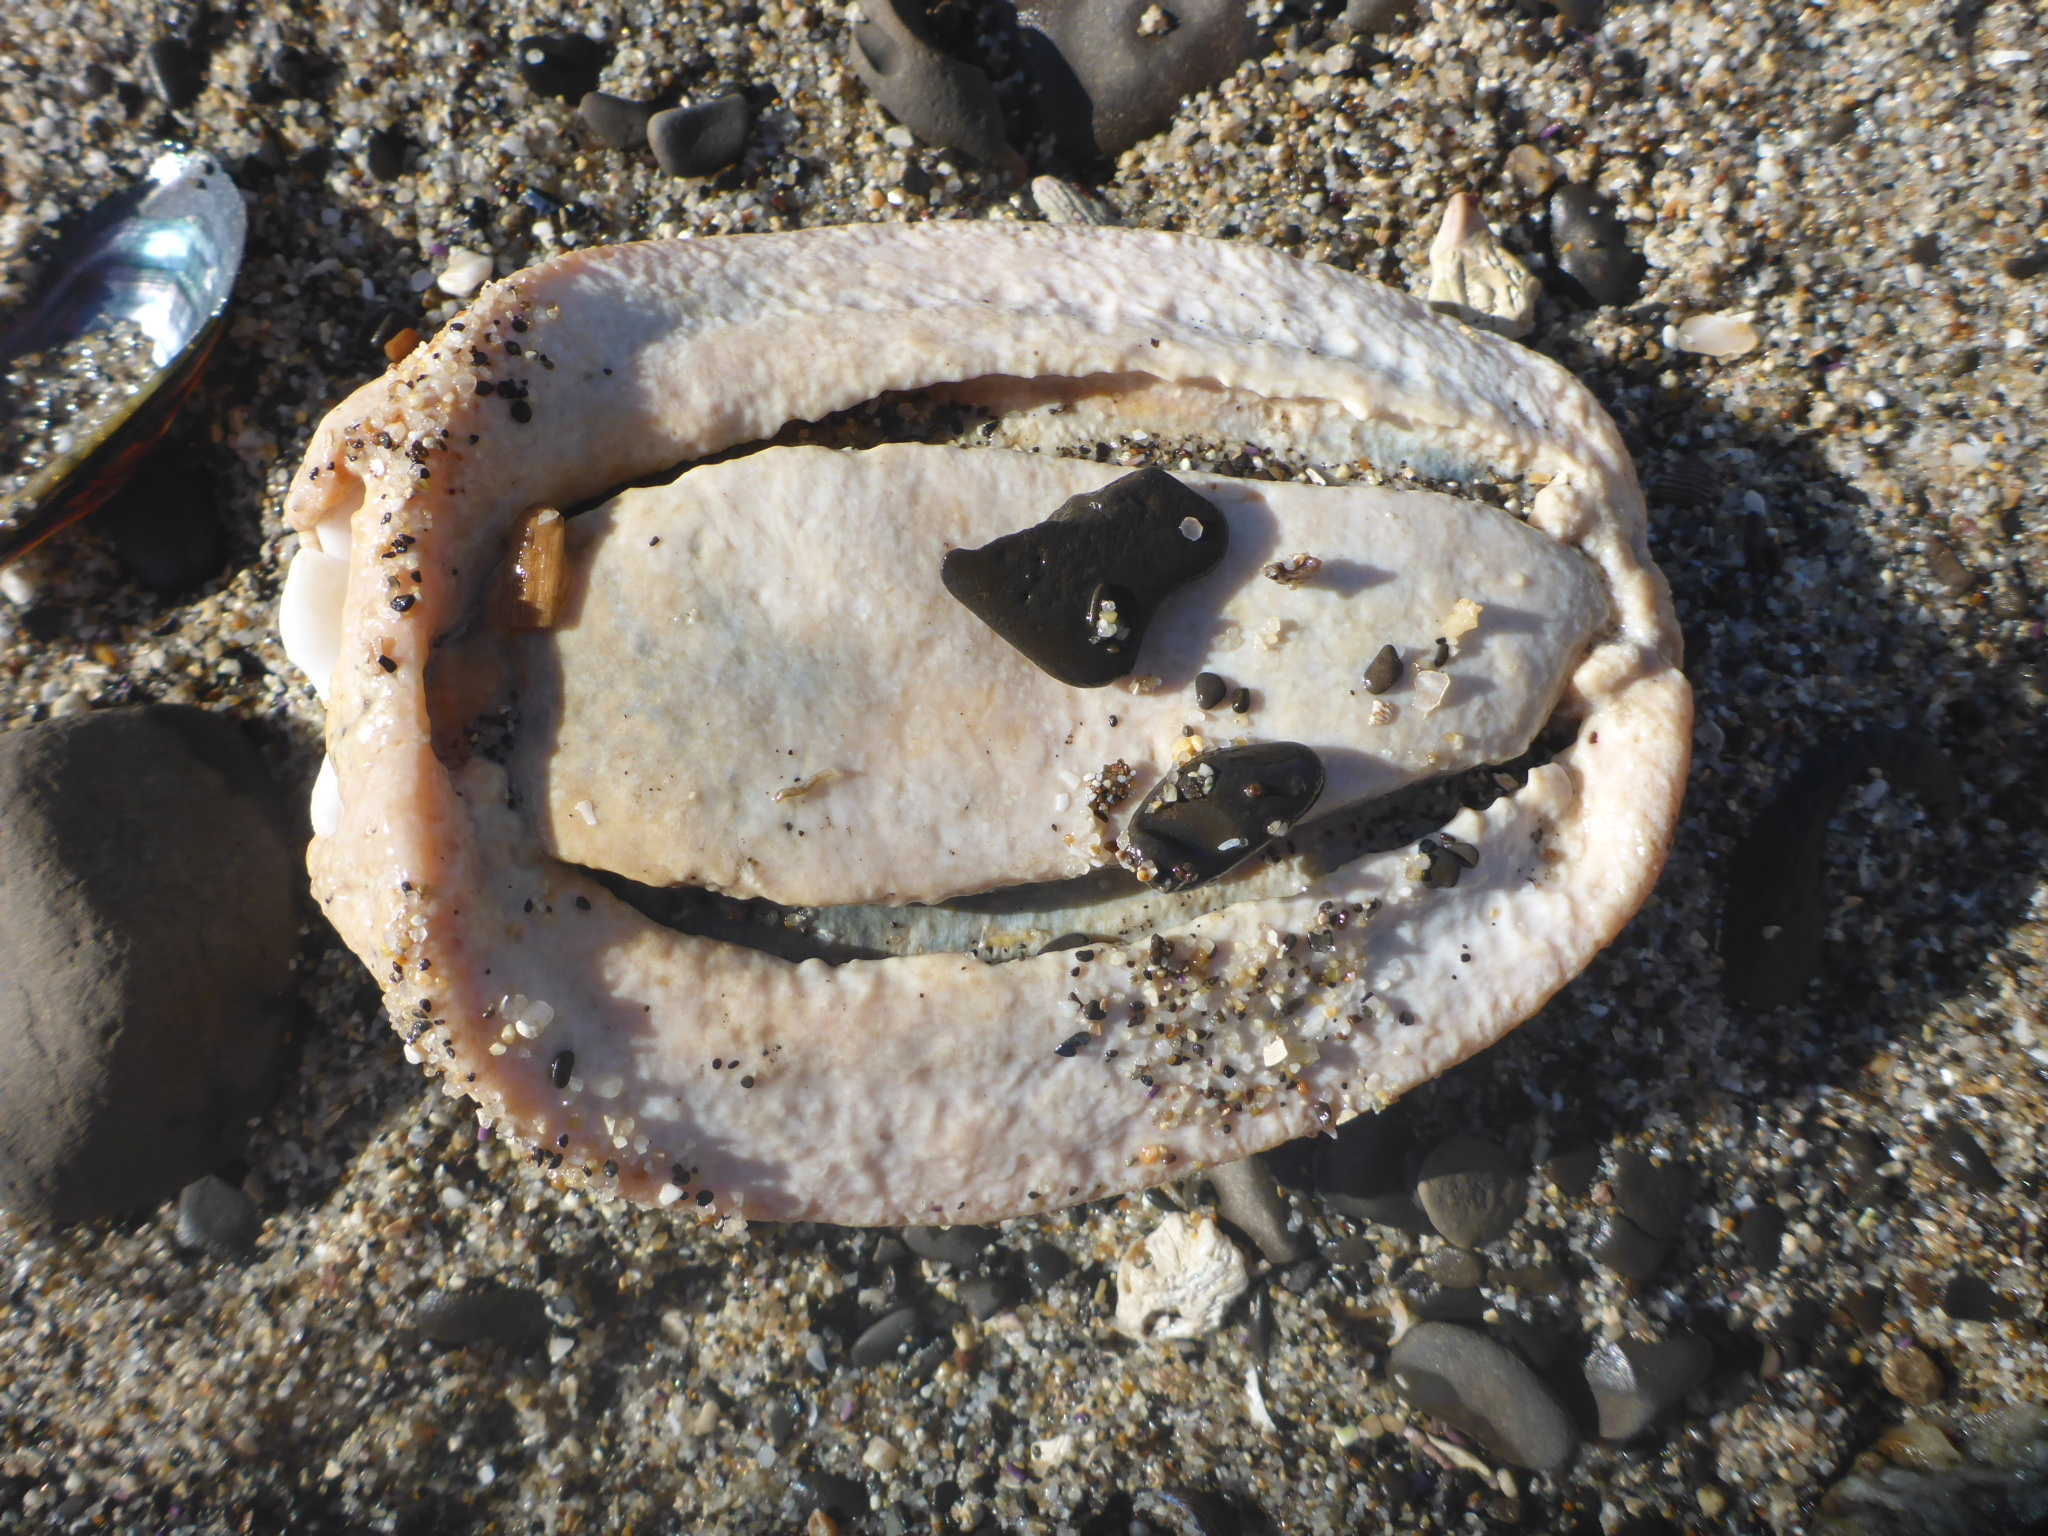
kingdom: Animalia
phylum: Mollusca
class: Polyplacophora
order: Chitonida
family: Acanthochitonidae
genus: Cryptochiton
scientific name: Cryptochiton stelleri
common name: Giant pacific chiton
